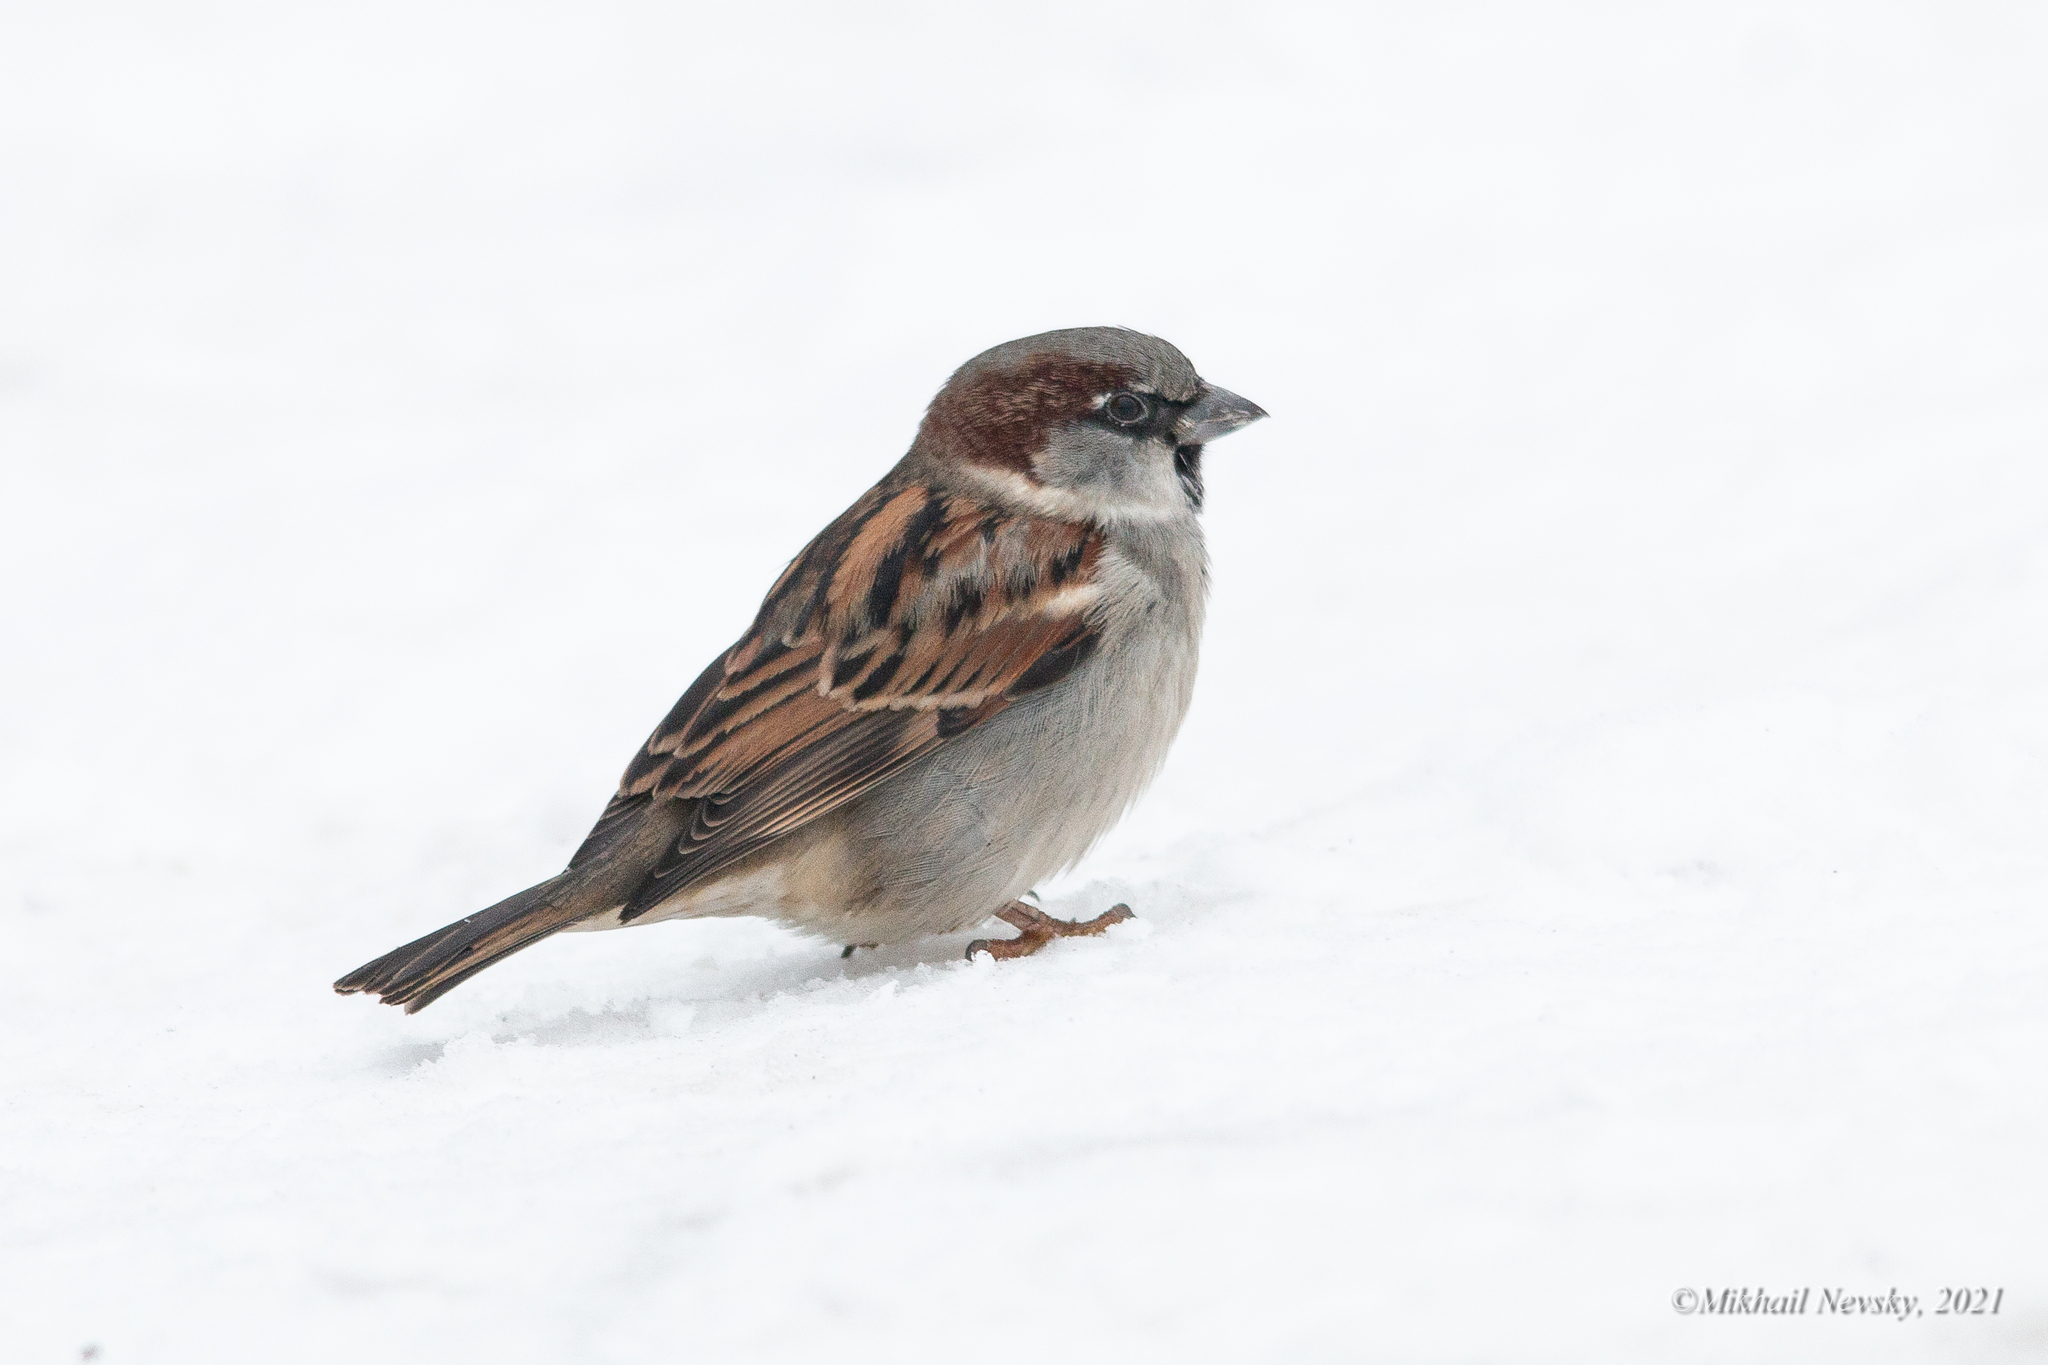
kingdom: Animalia
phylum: Chordata
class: Aves
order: Passeriformes
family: Passeridae
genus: Passer
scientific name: Passer domesticus
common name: House sparrow
